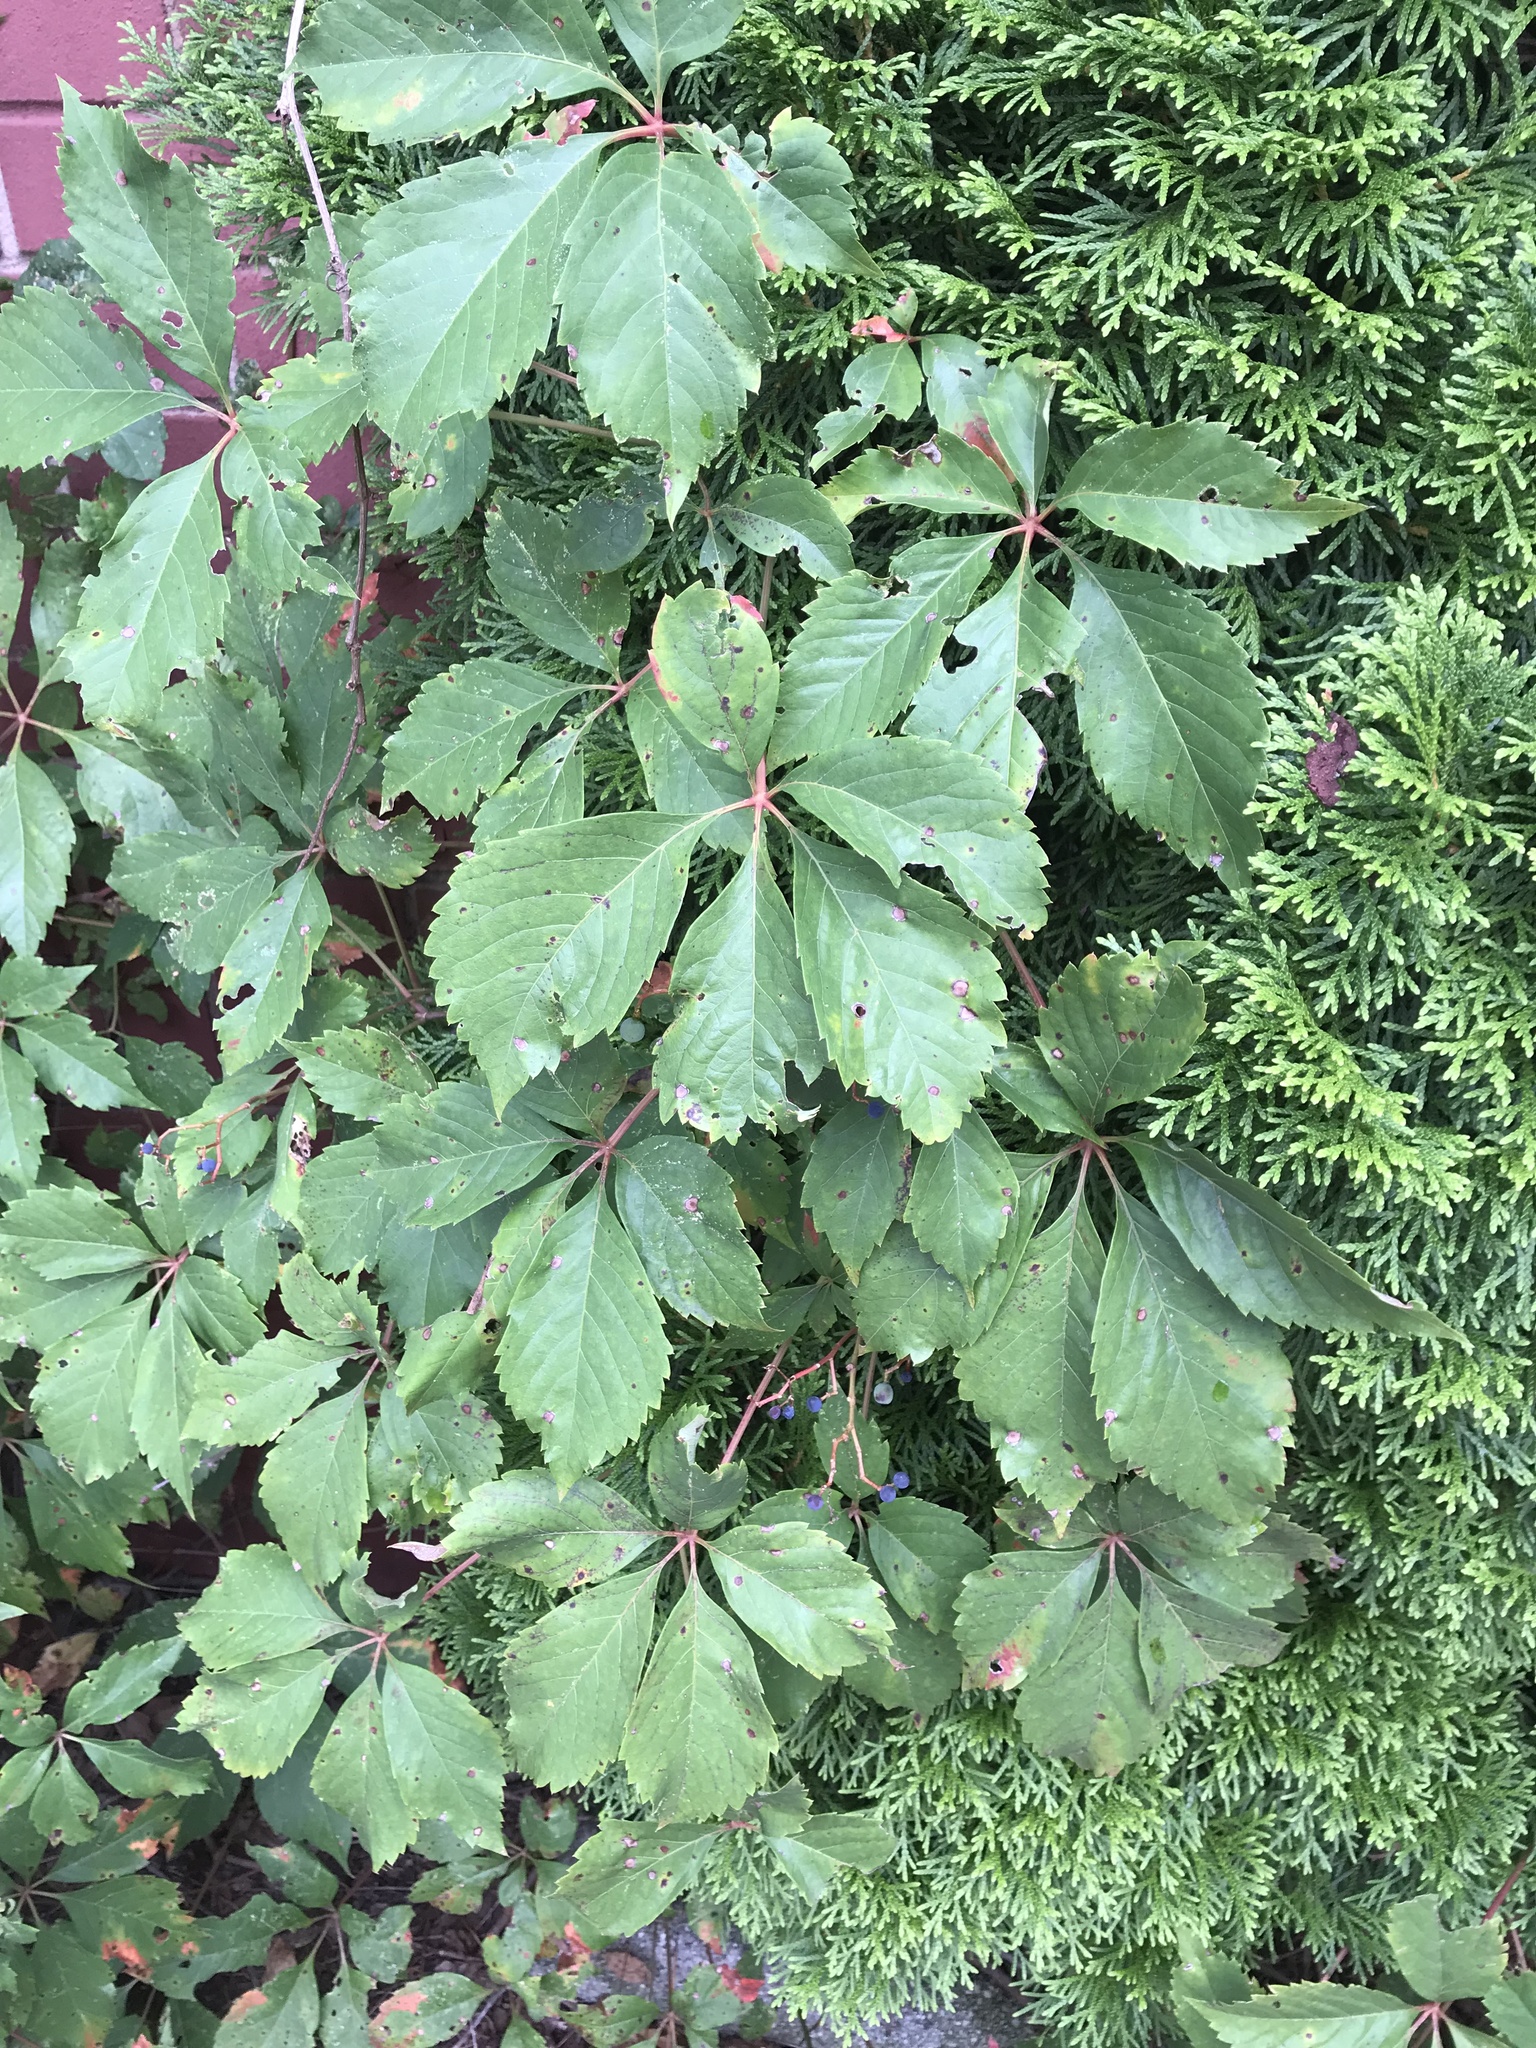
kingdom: Plantae
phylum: Tracheophyta
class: Magnoliopsida
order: Vitales
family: Vitaceae
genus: Parthenocissus
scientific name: Parthenocissus inserta
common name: False virginia-creeper
